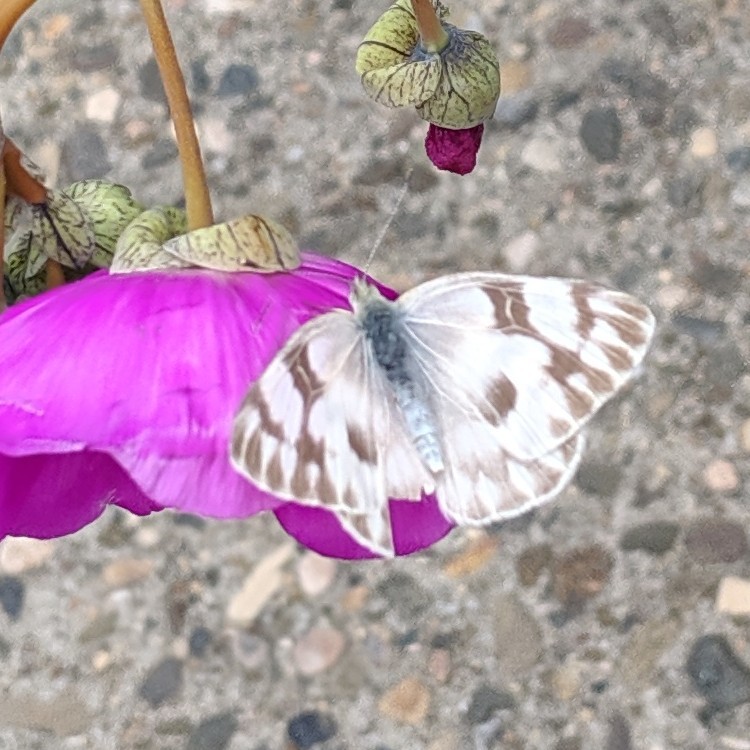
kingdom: Animalia
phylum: Arthropoda
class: Insecta
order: Lepidoptera
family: Pieridae
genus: Pontia
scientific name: Pontia protodice
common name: Checkered white
